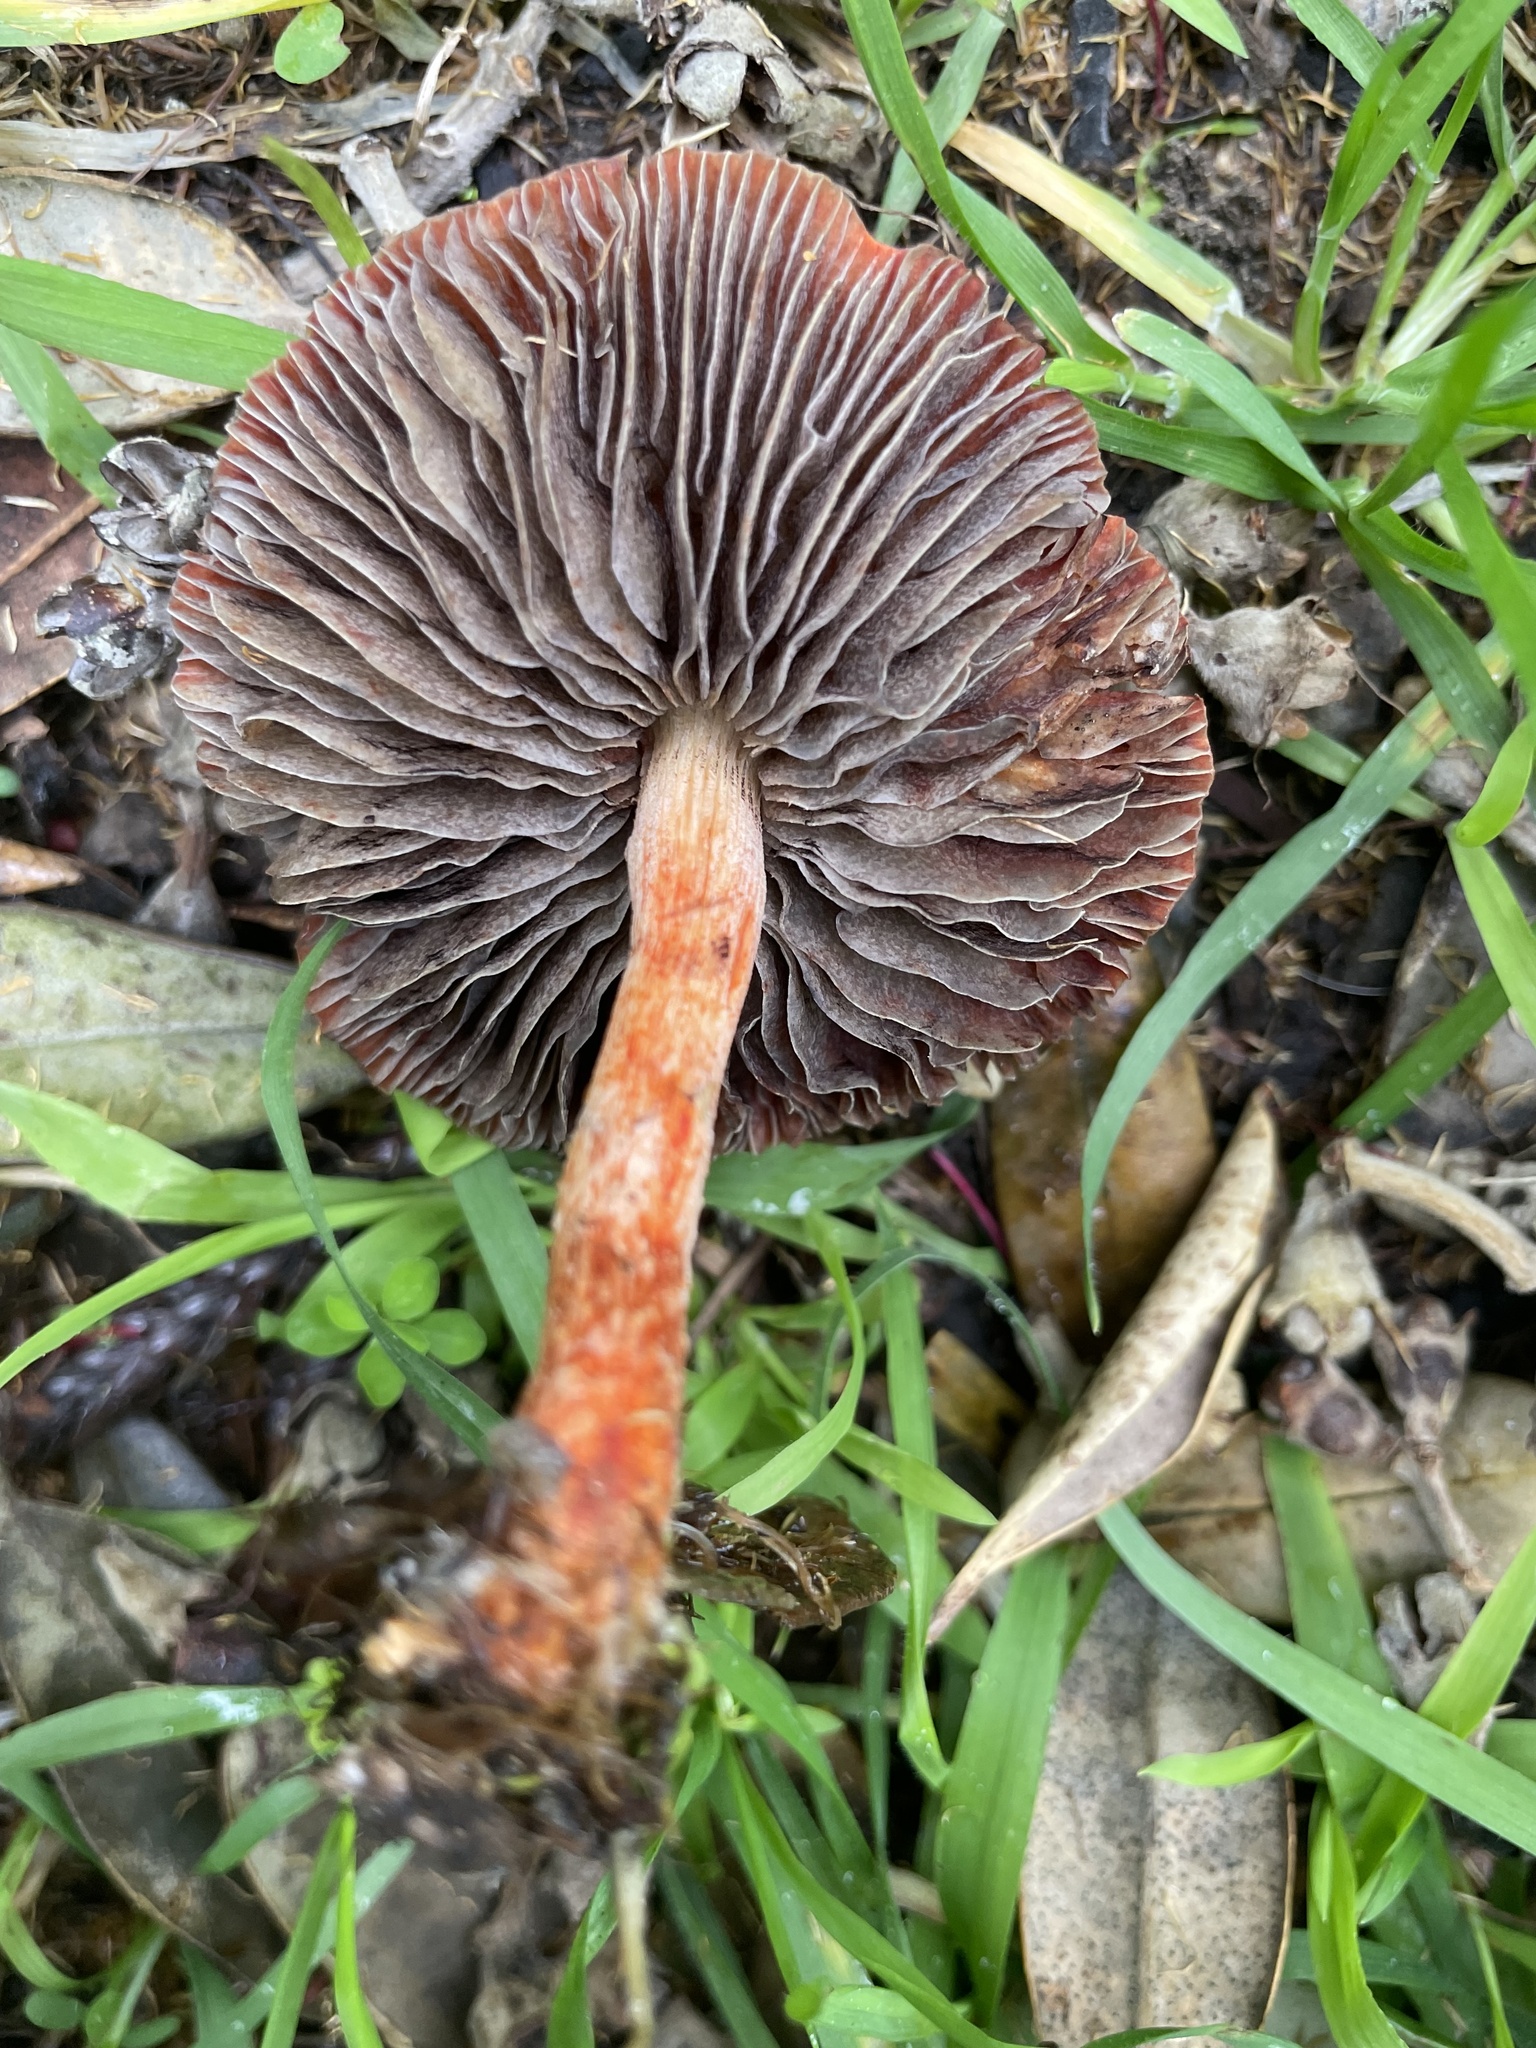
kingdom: Fungi
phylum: Basidiomycota
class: Agaricomycetes
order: Agaricales
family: Strophariaceae
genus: Leratiomyces
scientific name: Leratiomyces ceres
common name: Redlead roundhead
